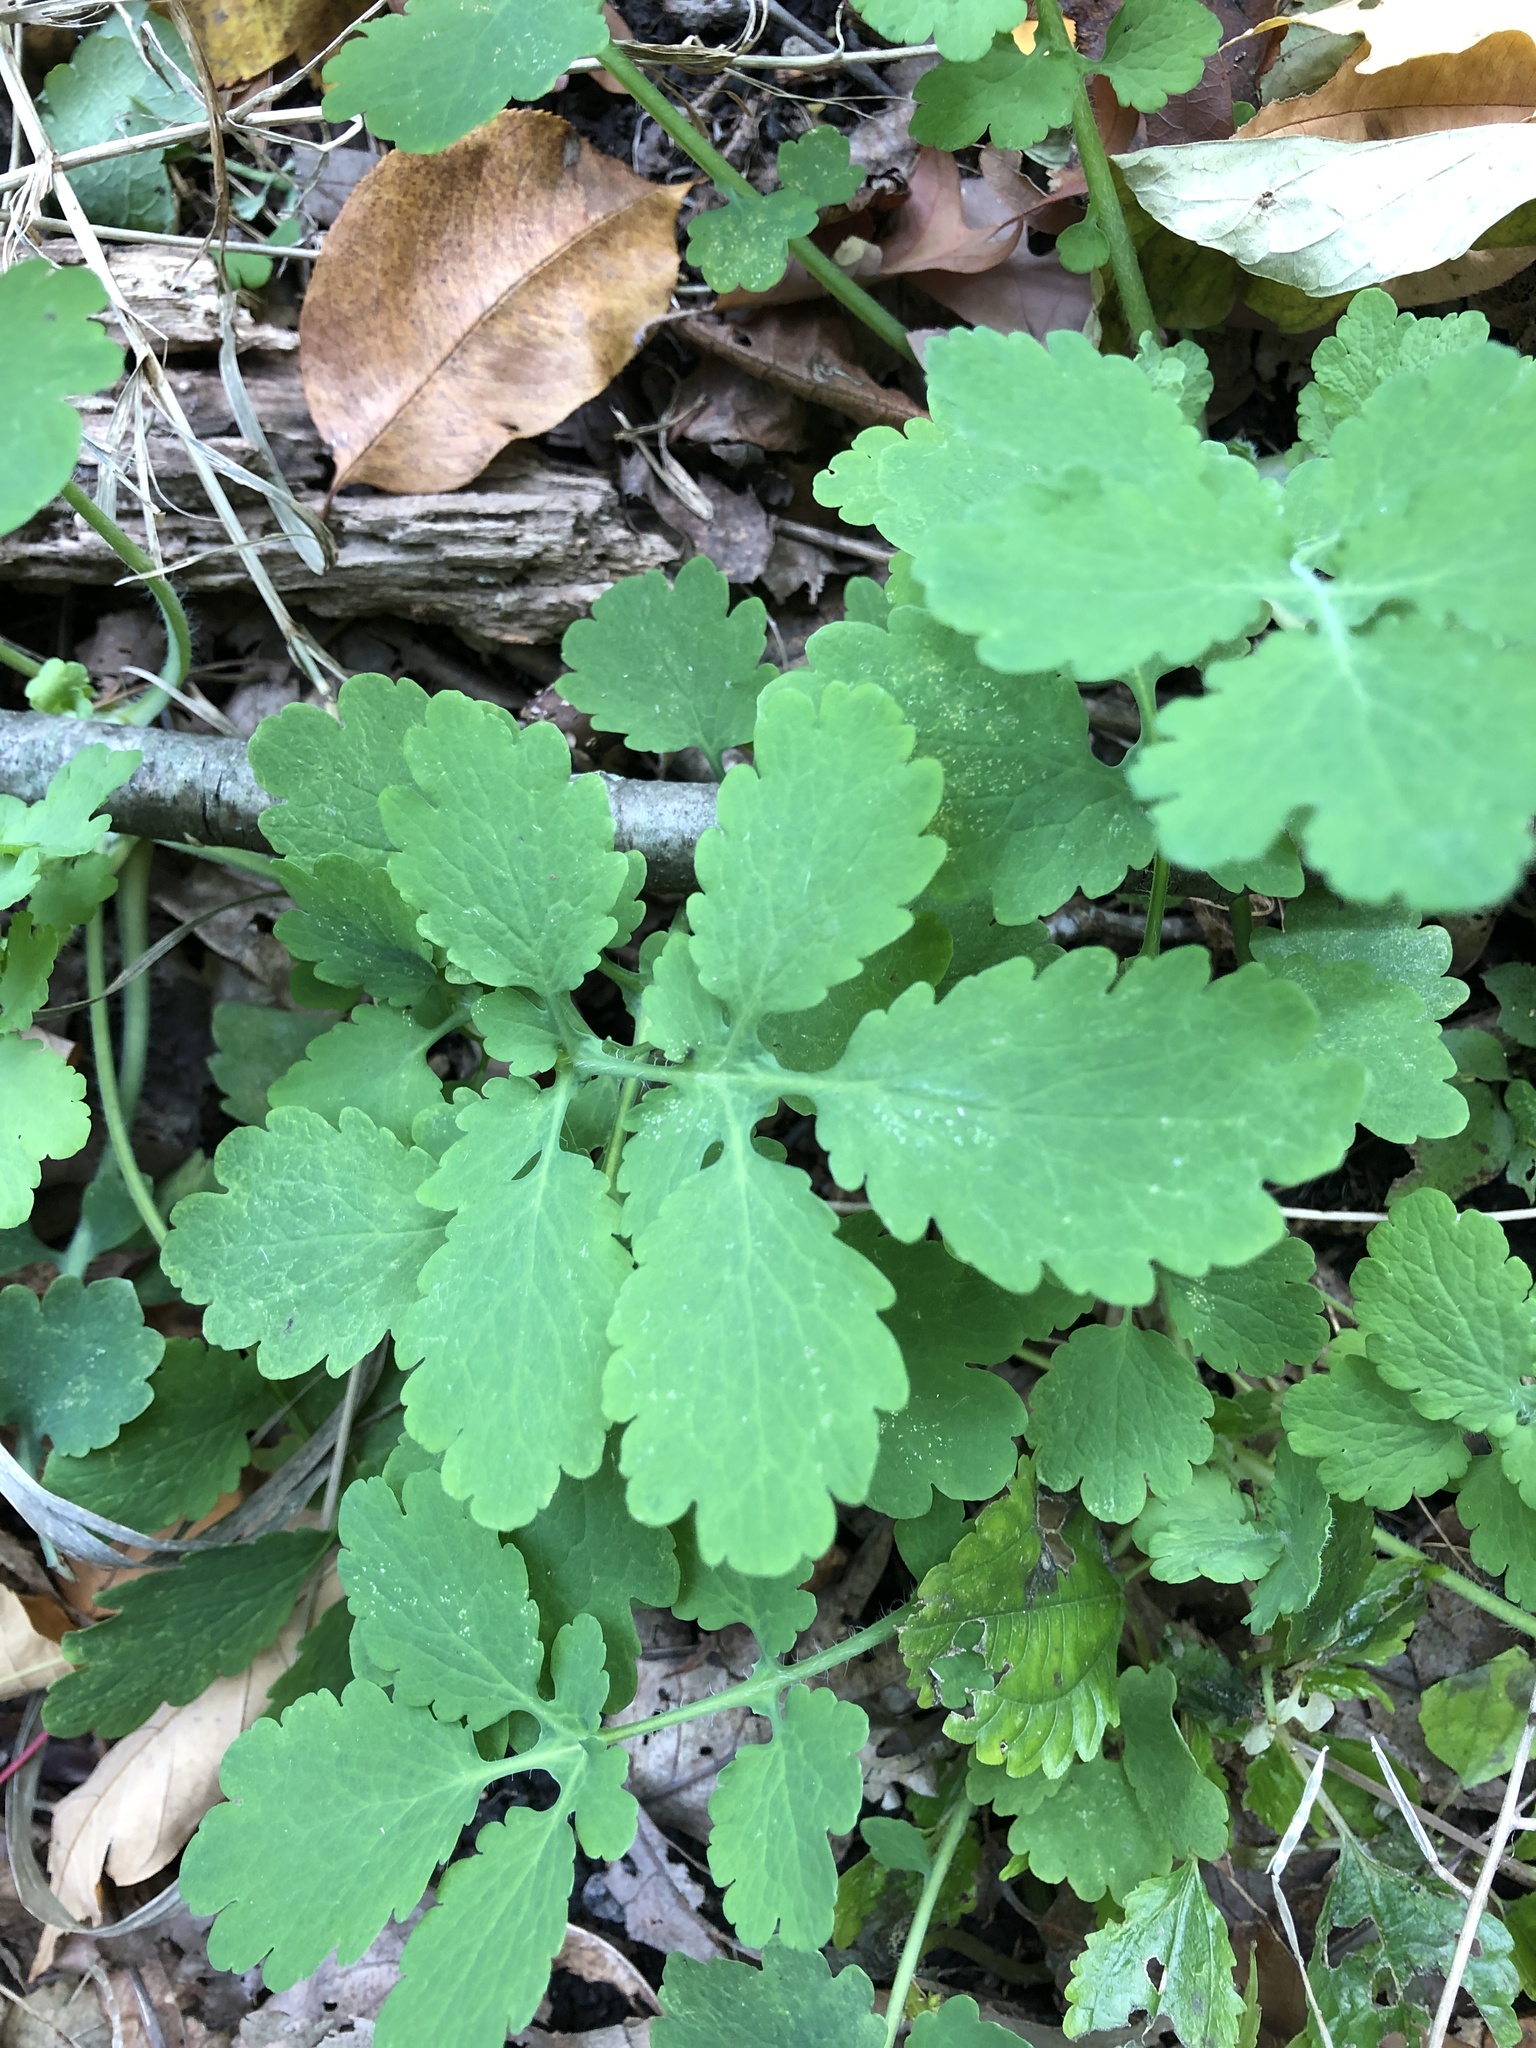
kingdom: Plantae
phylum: Tracheophyta
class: Magnoliopsida
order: Ranunculales
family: Papaveraceae
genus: Chelidonium
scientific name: Chelidonium majus
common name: Greater celandine
